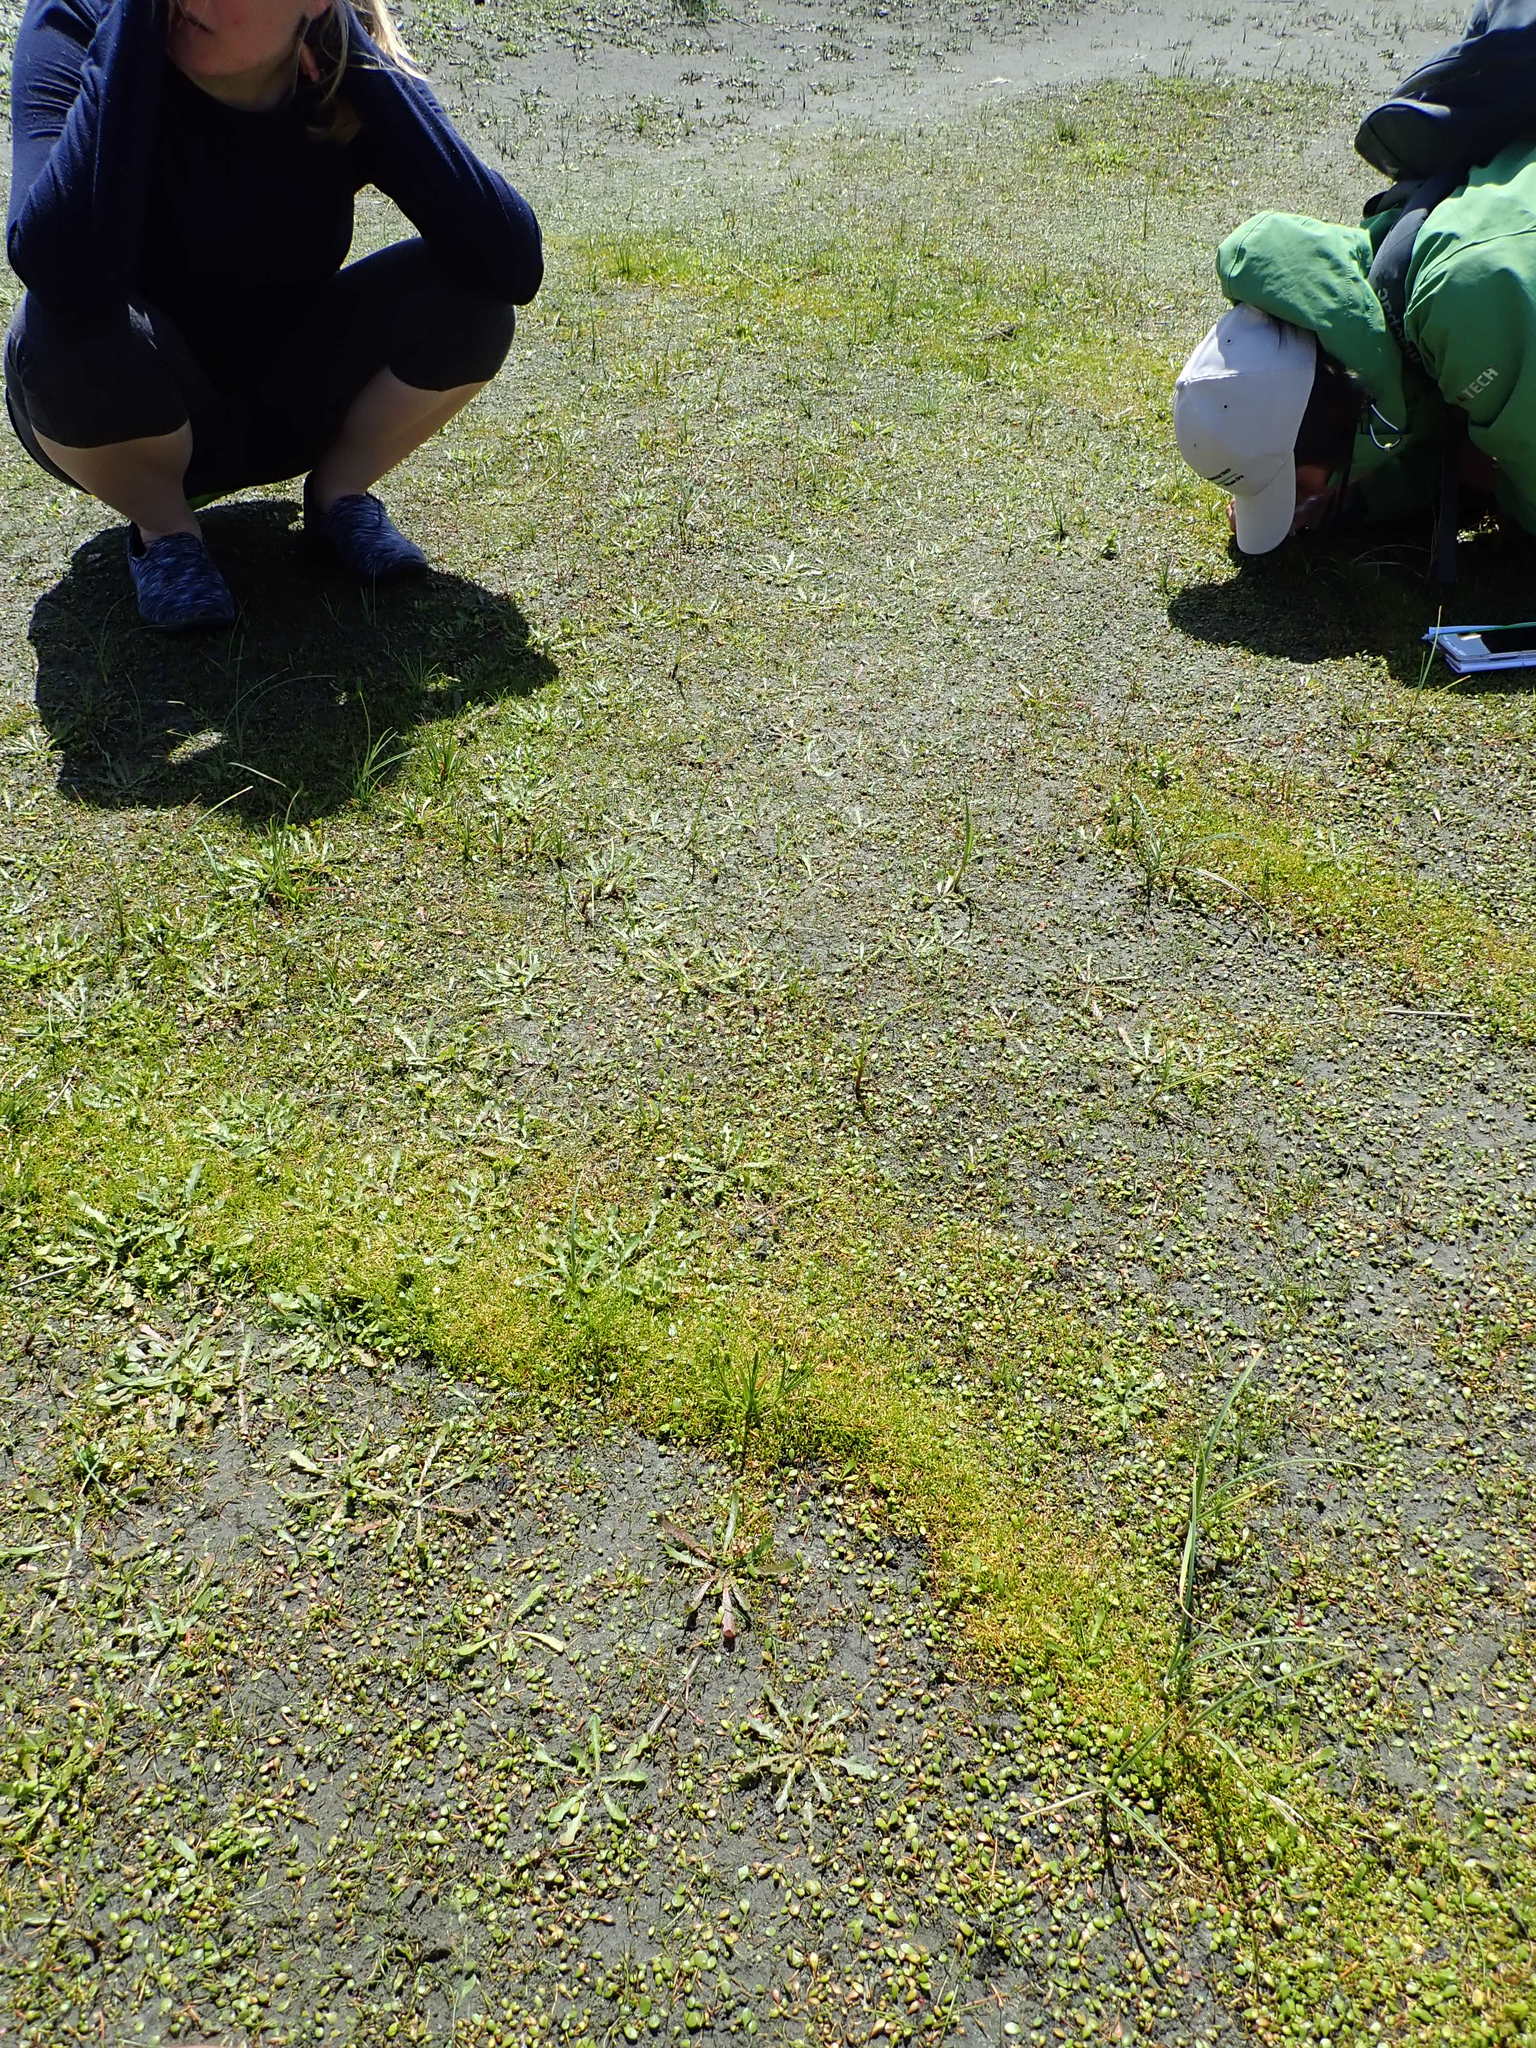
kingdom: Plantae
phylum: Tracheophyta
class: Magnoliopsida
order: Apiales
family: Apiaceae
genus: Lilaeopsis
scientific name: Lilaeopsis novae-zelandiae
